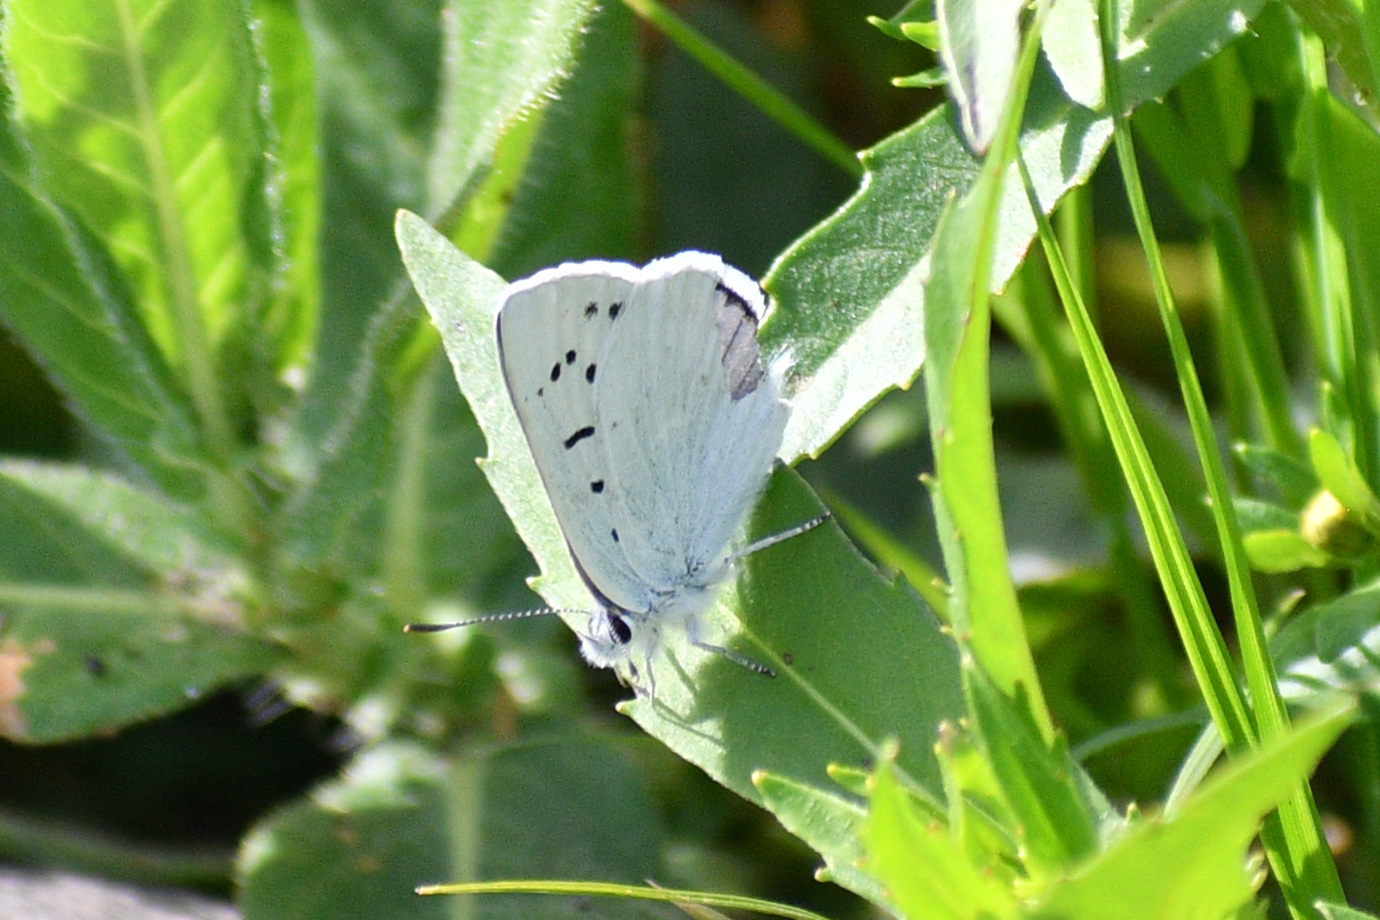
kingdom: Animalia
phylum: Arthropoda
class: Insecta
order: Lepidoptera
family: Lycaenidae
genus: Tharsalea
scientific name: Tharsalea heteronea
